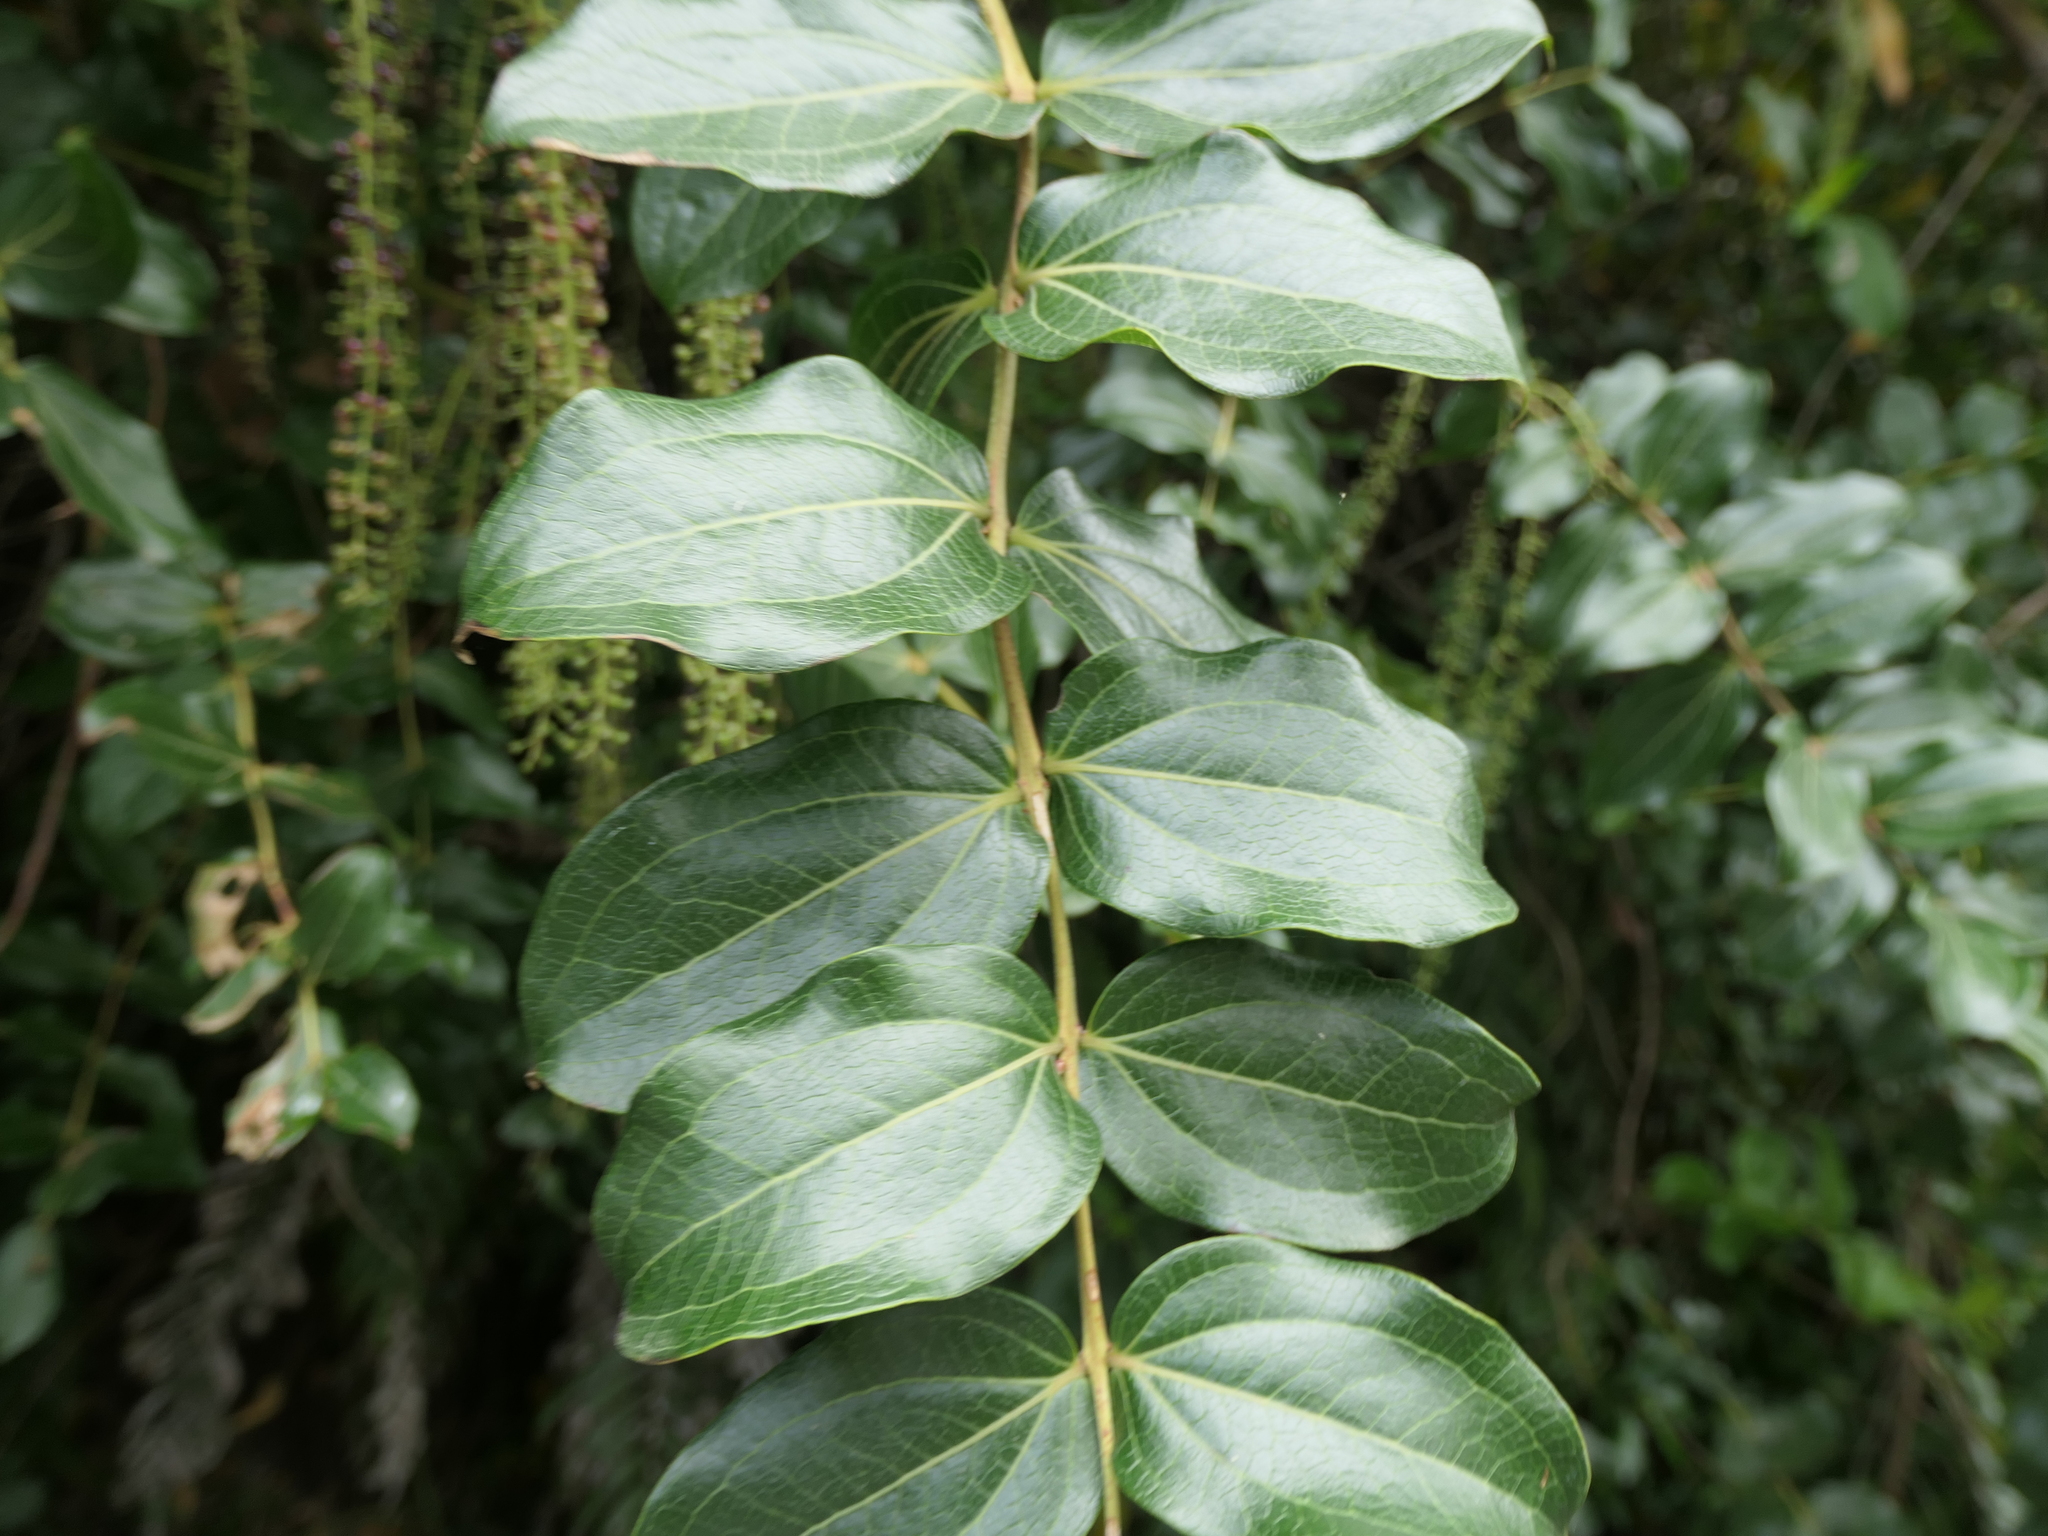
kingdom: Plantae
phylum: Tracheophyta
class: Magnoliopsida
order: Cucurbitales
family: Coriariaceae
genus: Coriaria
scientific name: Coriaria arborea
